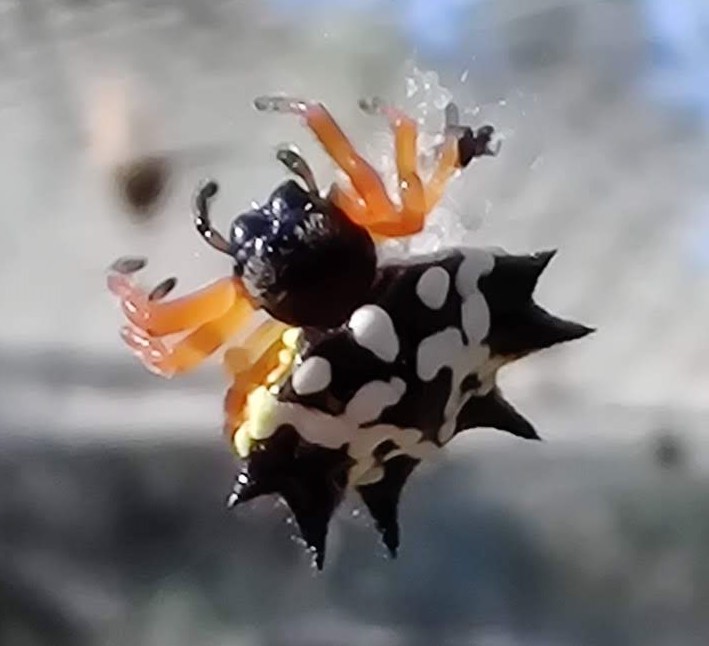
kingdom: Animalia
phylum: Arthropoda
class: Arachnida
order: Araneae
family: Araneidae
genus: Austracantha
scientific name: Austracantha minax
